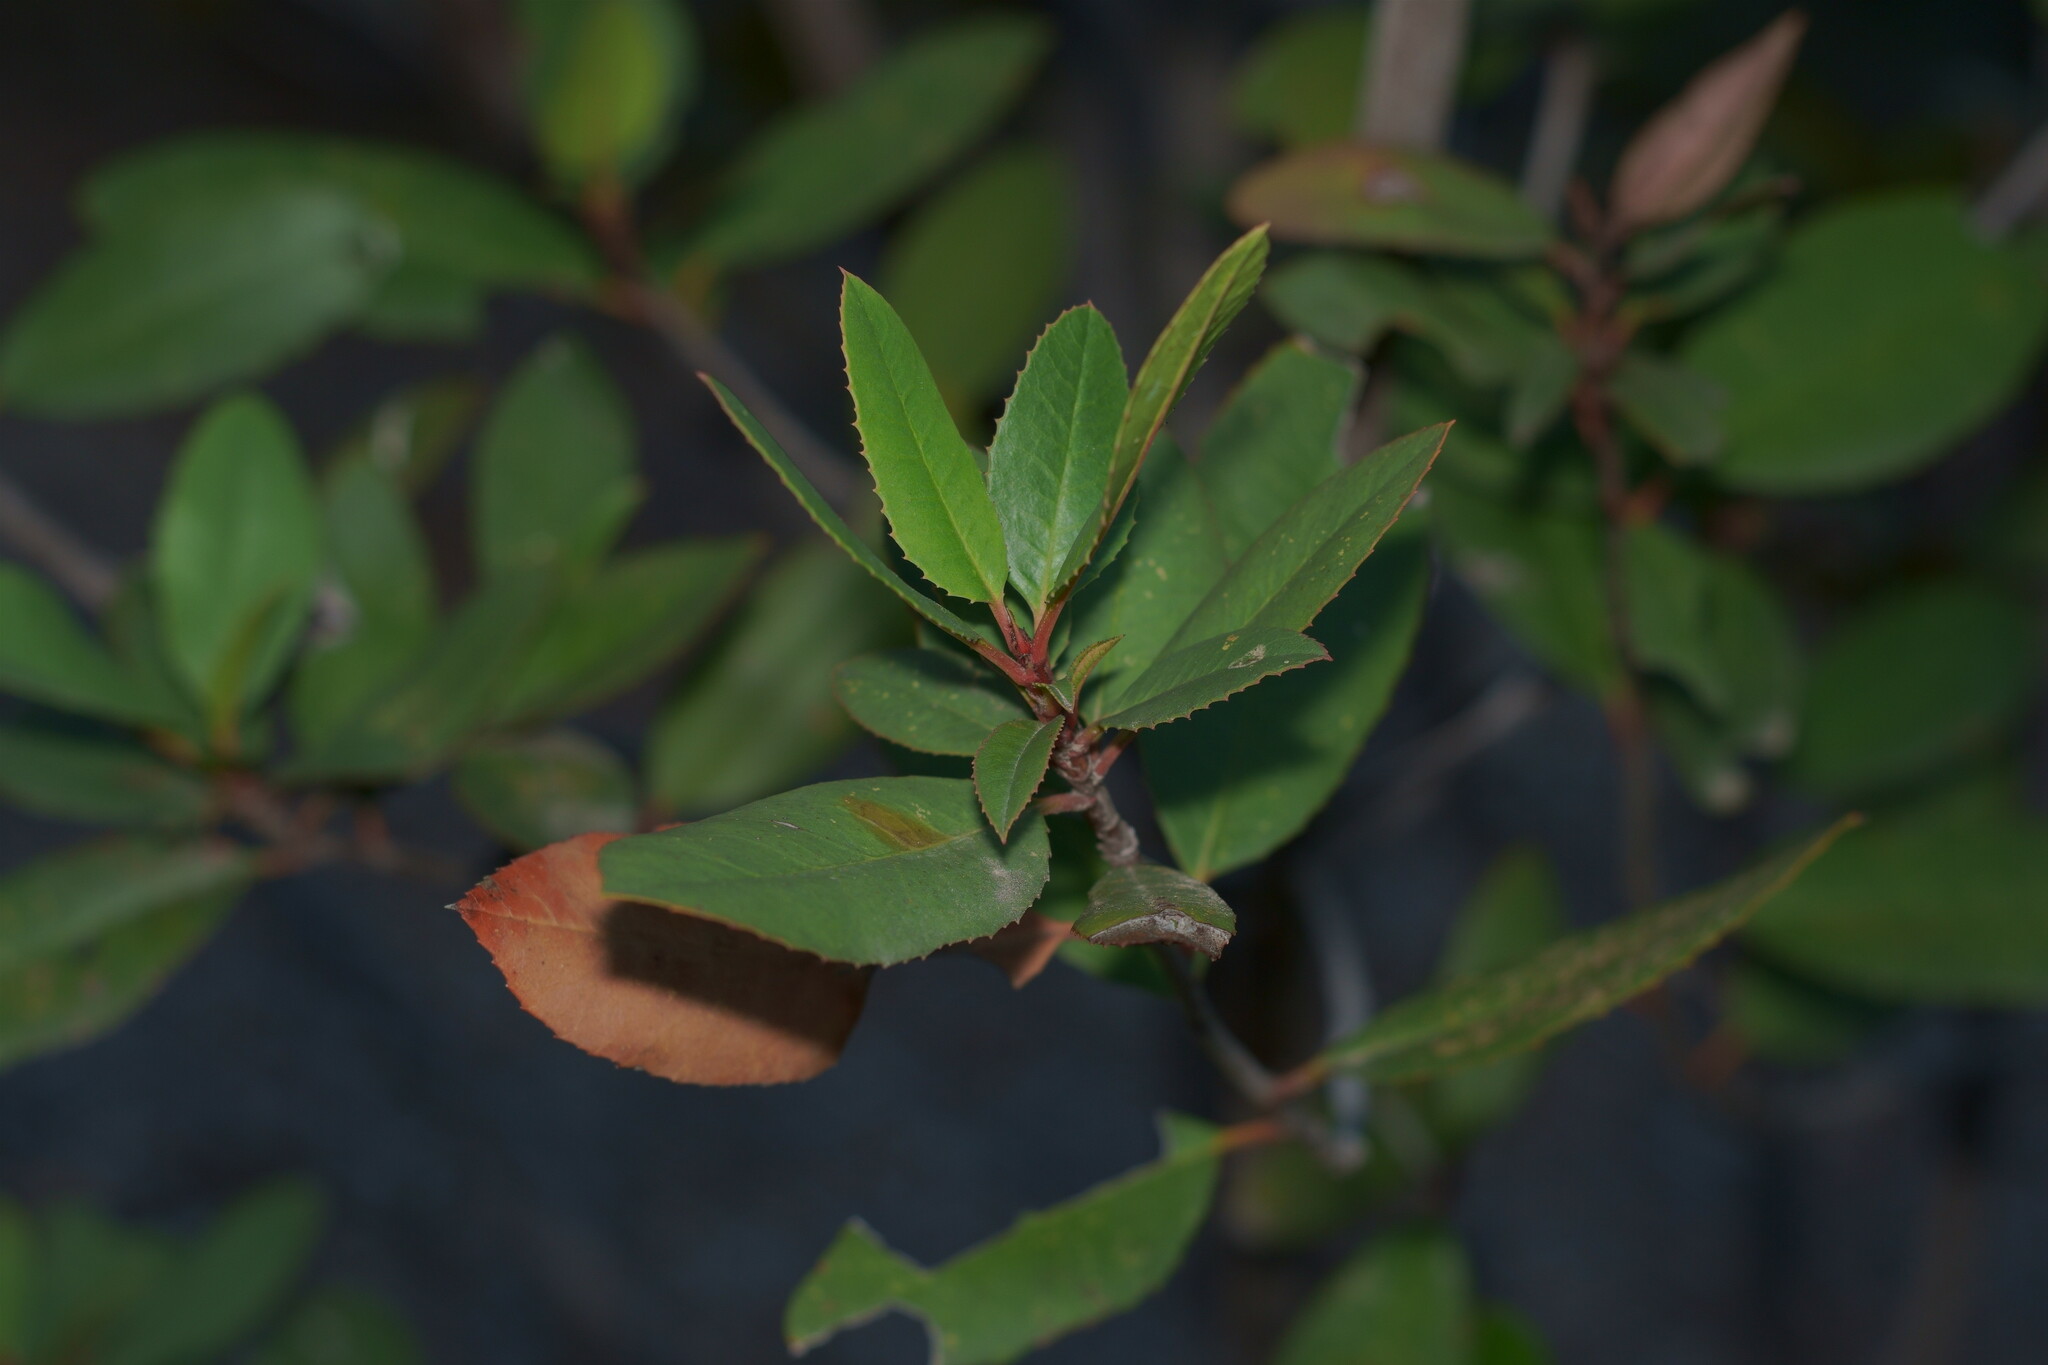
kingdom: Plantae
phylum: Tracheophyta
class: Magnoliopsida
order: Rosales
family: Rosaceae
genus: Heteromeles
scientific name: Heteromeles arbutifolia
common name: California-holly
